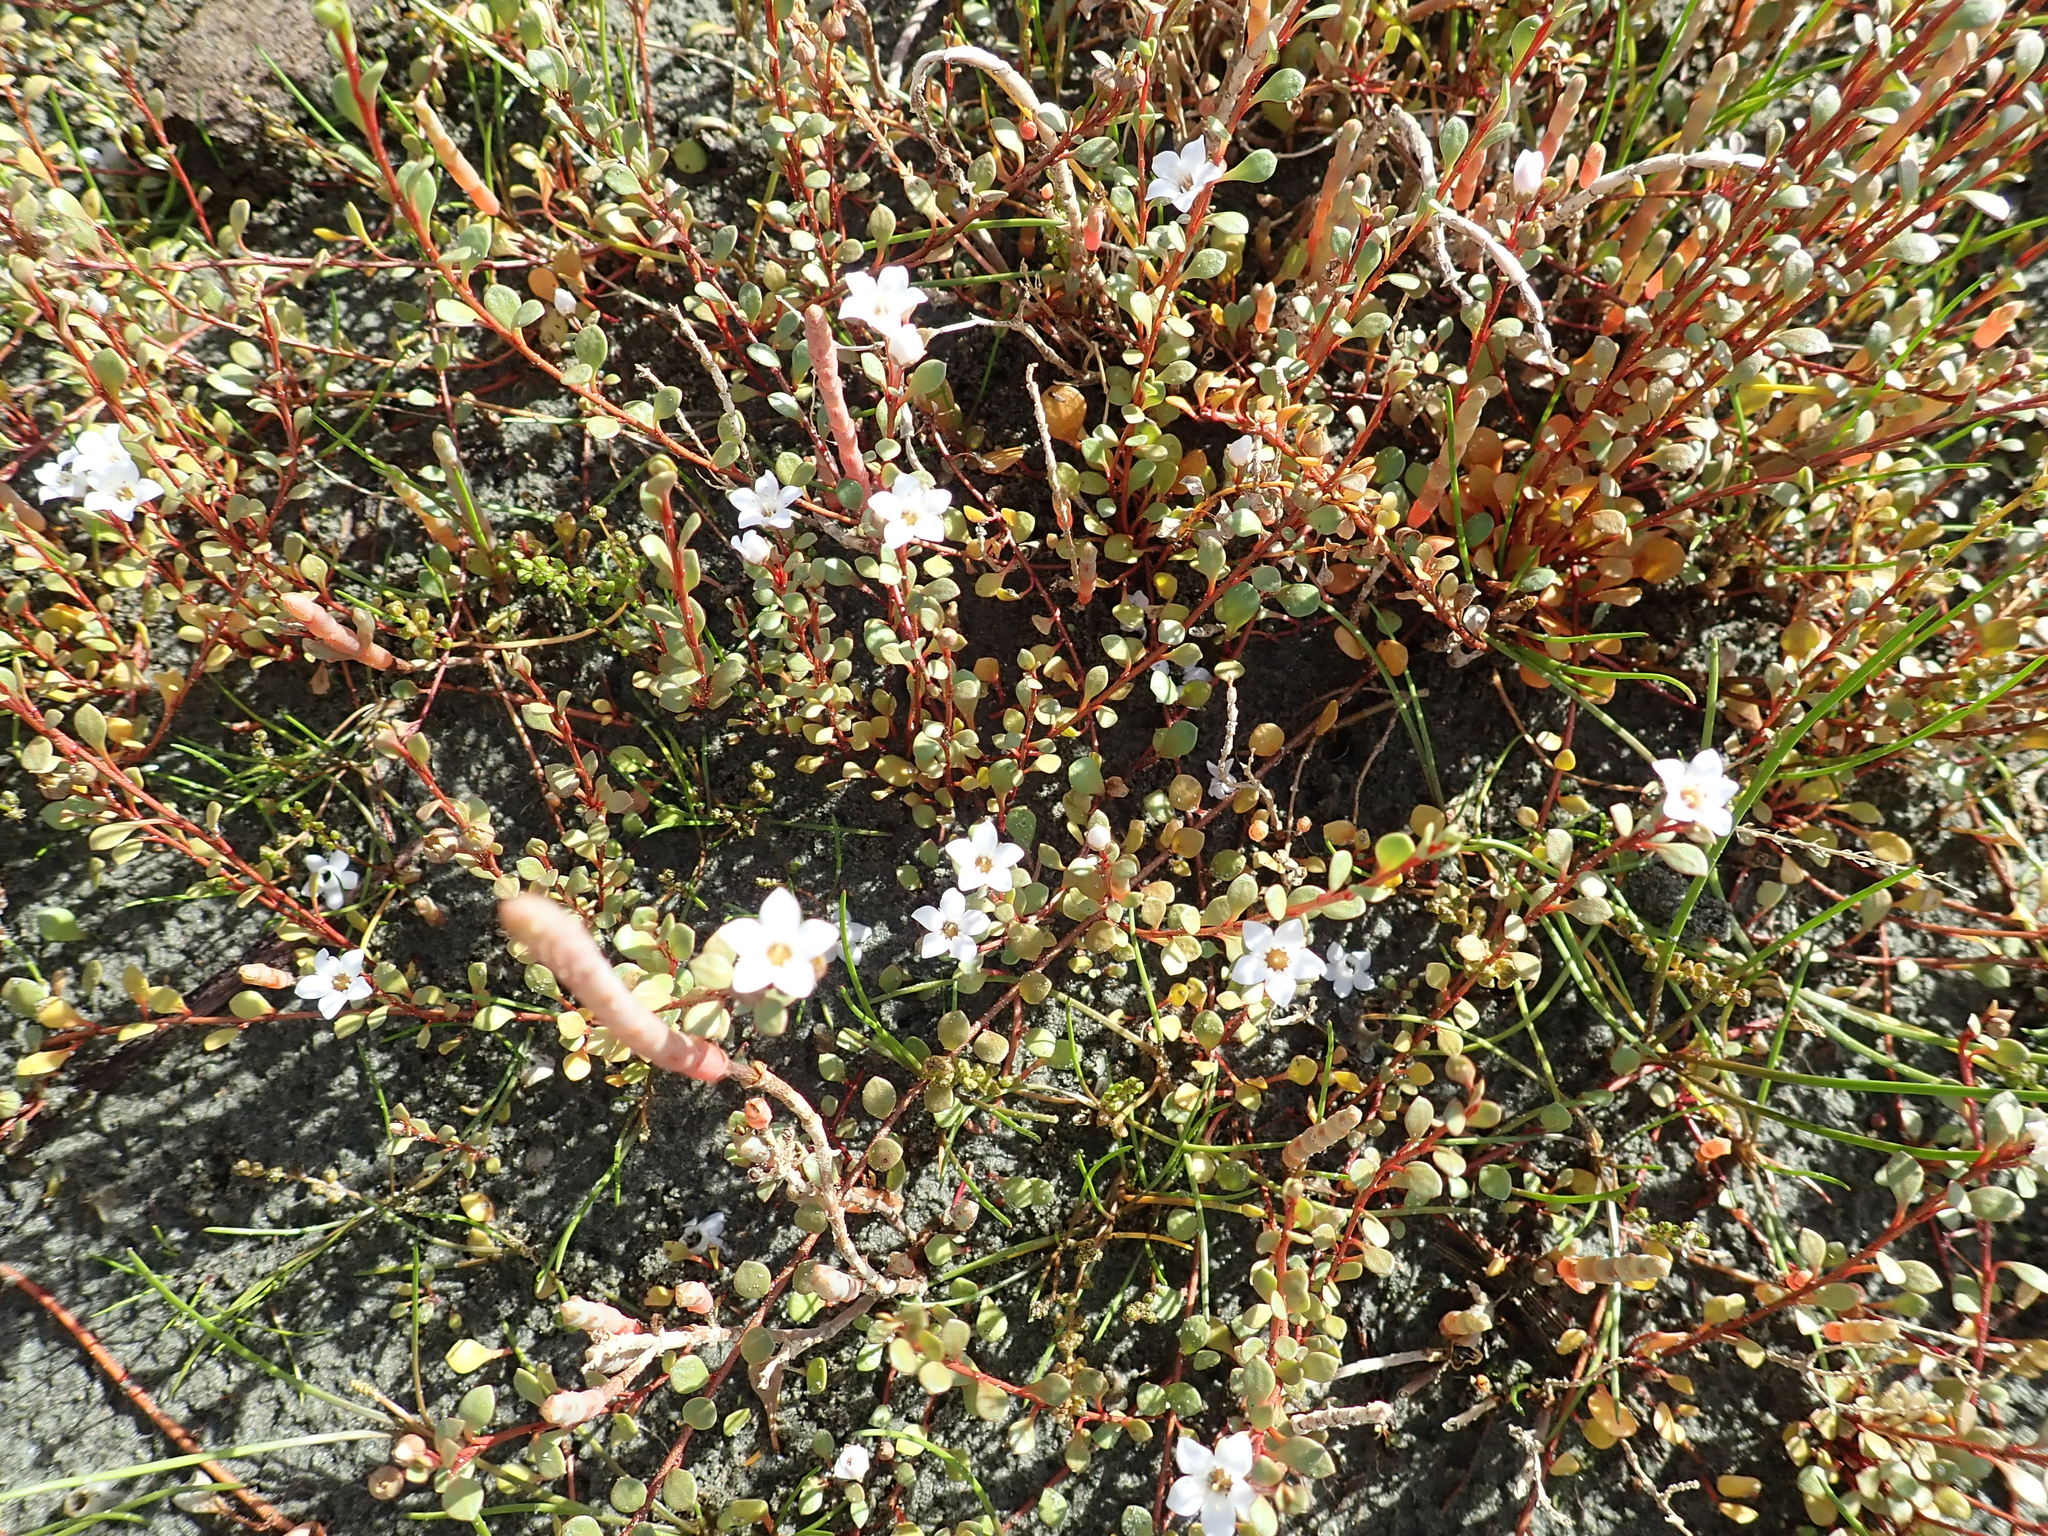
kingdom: Plantae
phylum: Tracheophyta
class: Magnoliopsida
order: Ericales
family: Primulaceae
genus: Samolus
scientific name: Samolus repens
